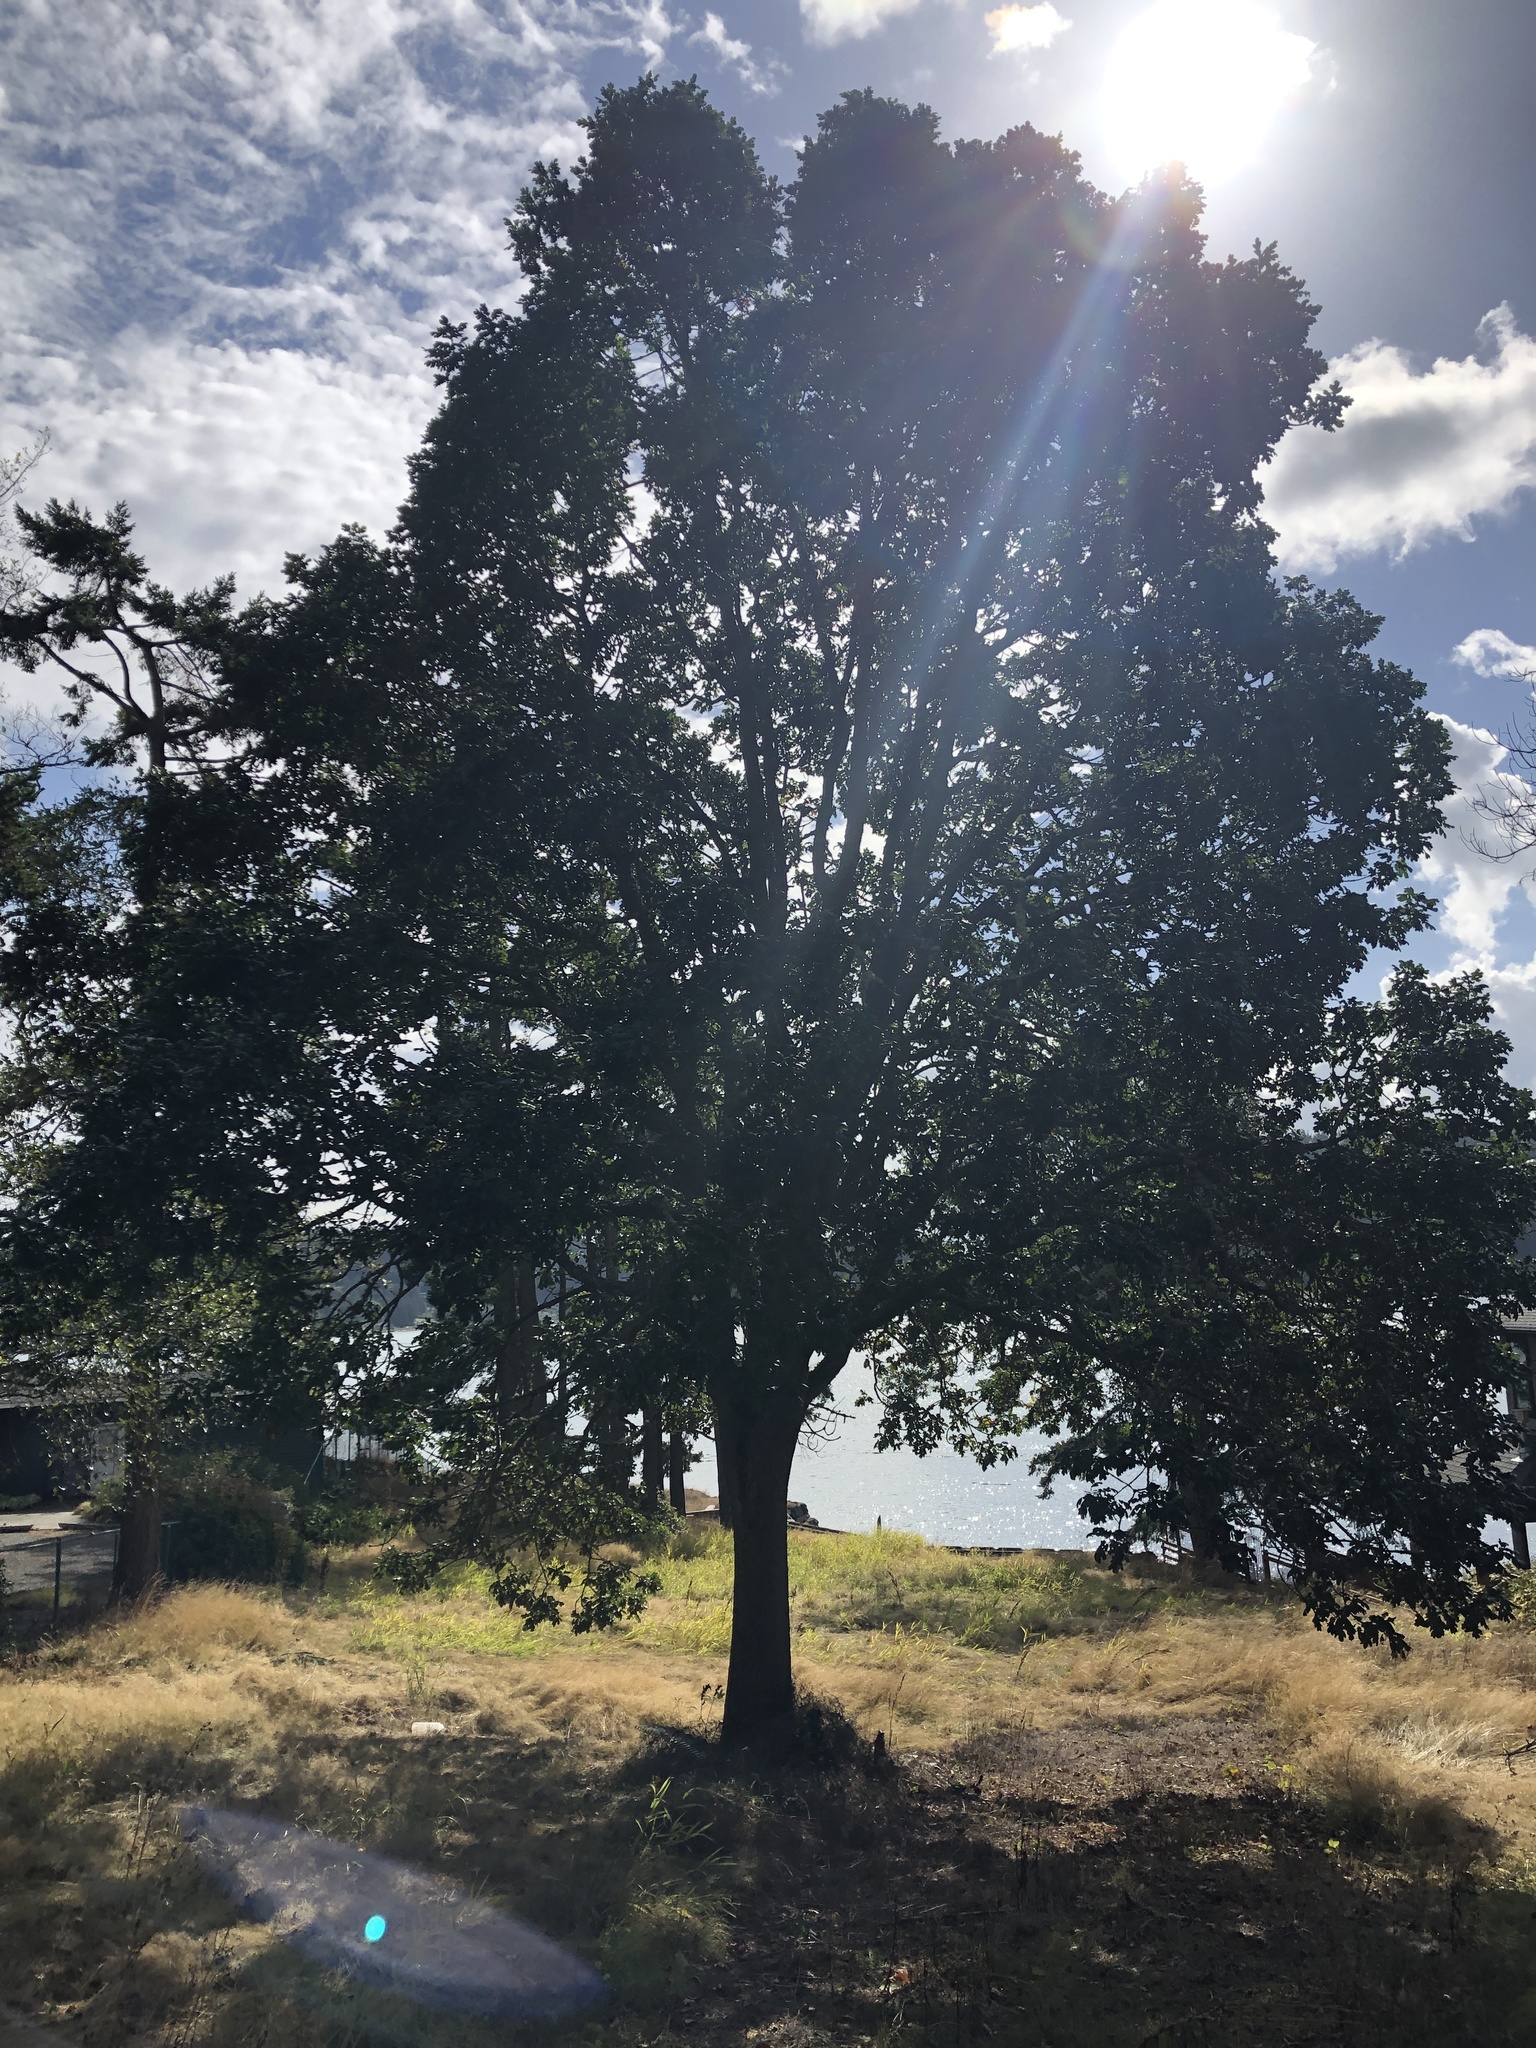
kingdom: Plantae
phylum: Tracheophyta
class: Magnoliopsida
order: Fagales
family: Fagaceae
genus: Quercus
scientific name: Quercus garryana
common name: Garry oak
